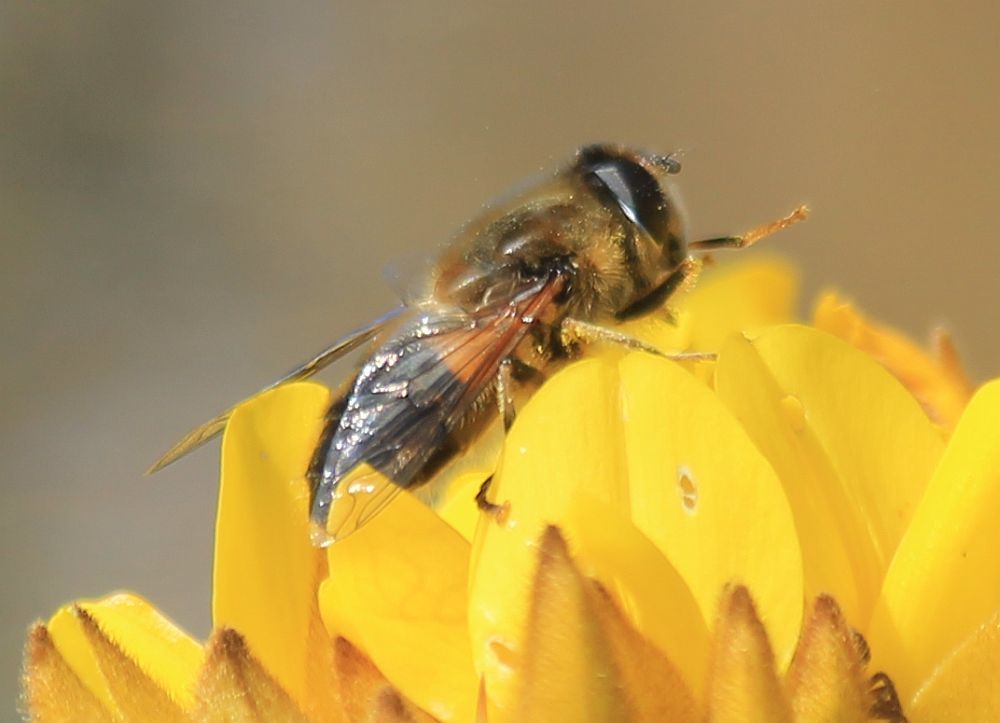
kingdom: Animalia
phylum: Arthropoda
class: Insecta
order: Diptera
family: Syrphidae
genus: Eristalis
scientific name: Eristalis pertinax
